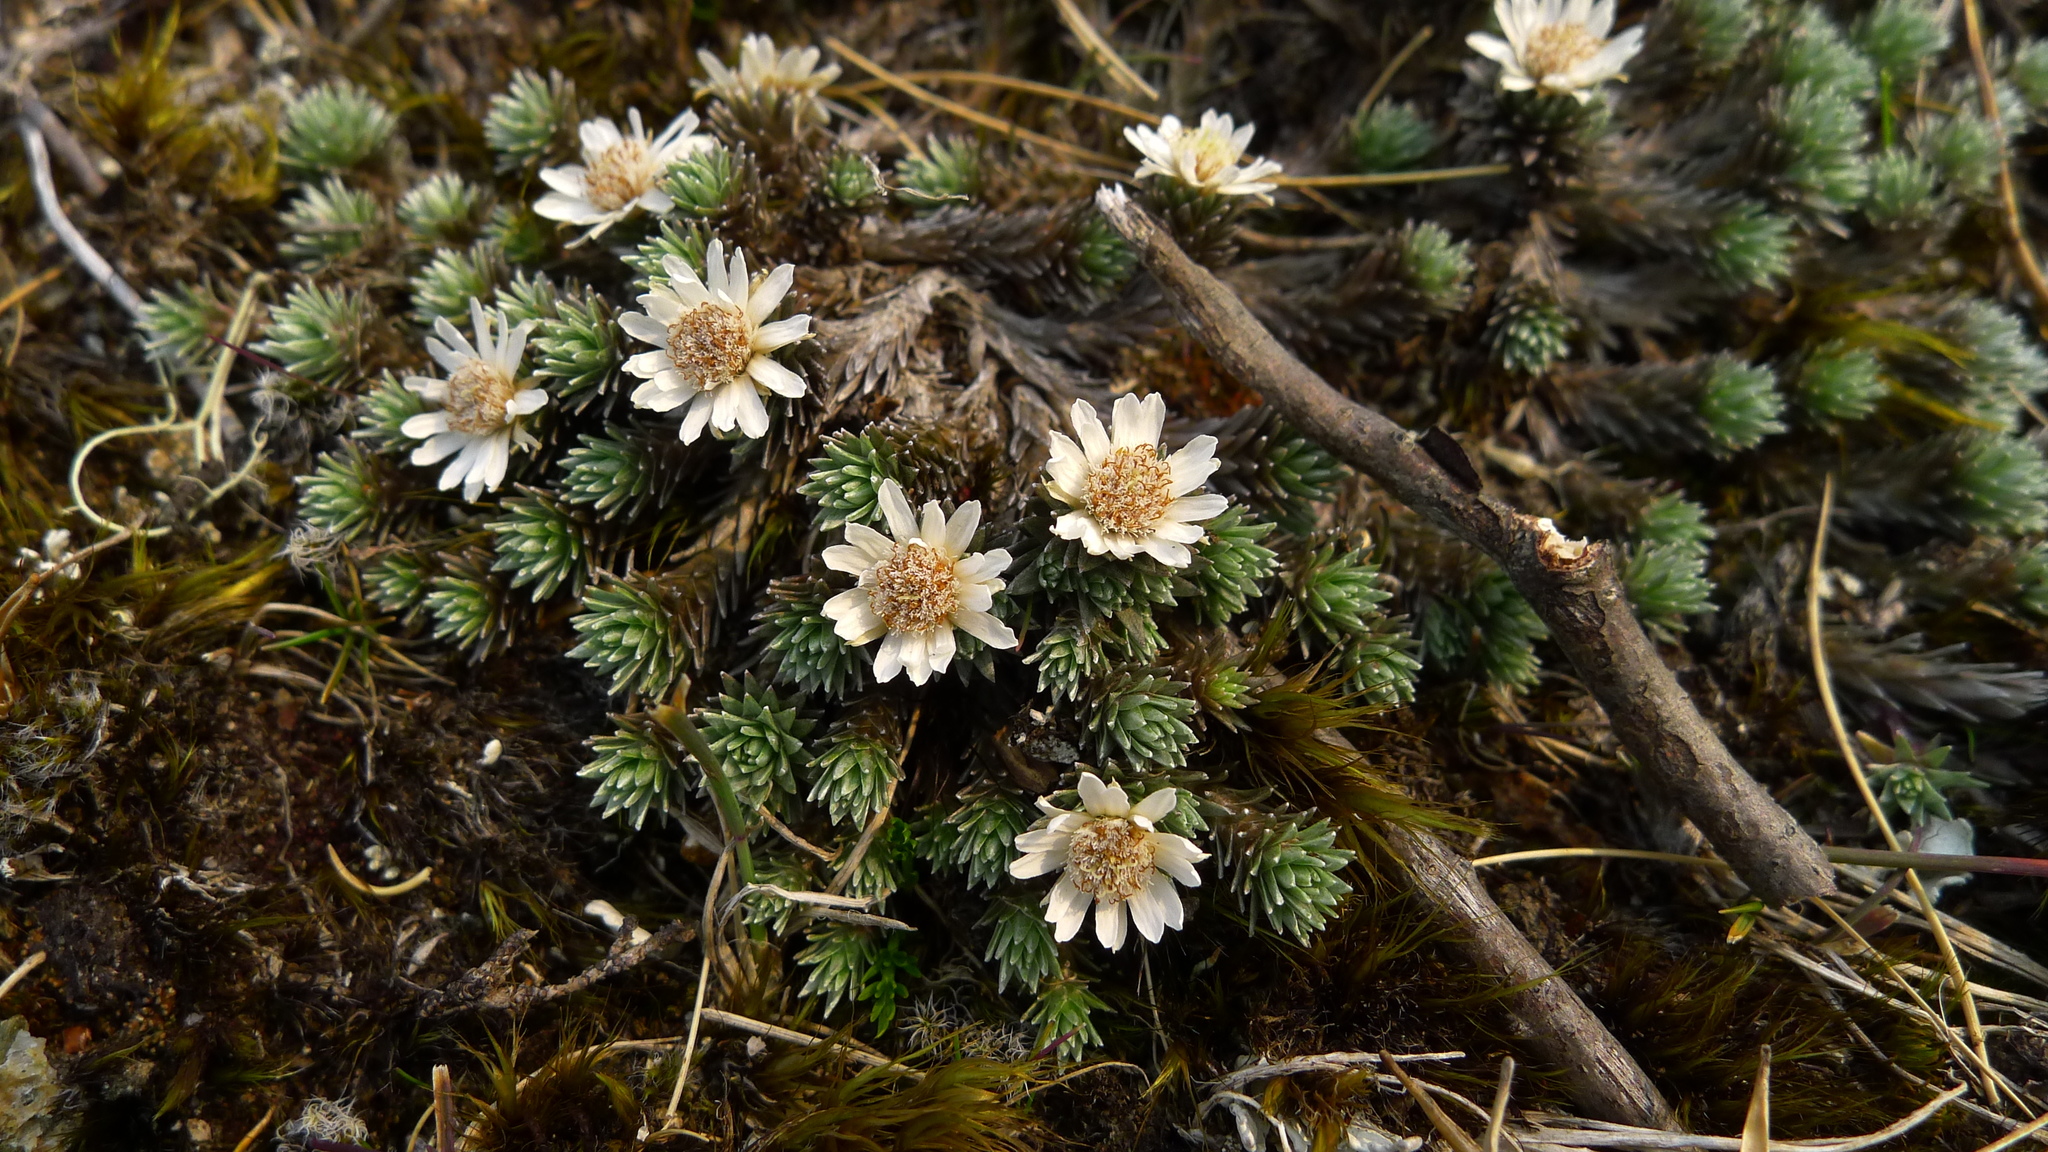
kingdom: Plantae
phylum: Tracheophyta
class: Magnoliopsida
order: Asterales
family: Asteraceae
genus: Raoulia
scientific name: Raoulia grandiflora
